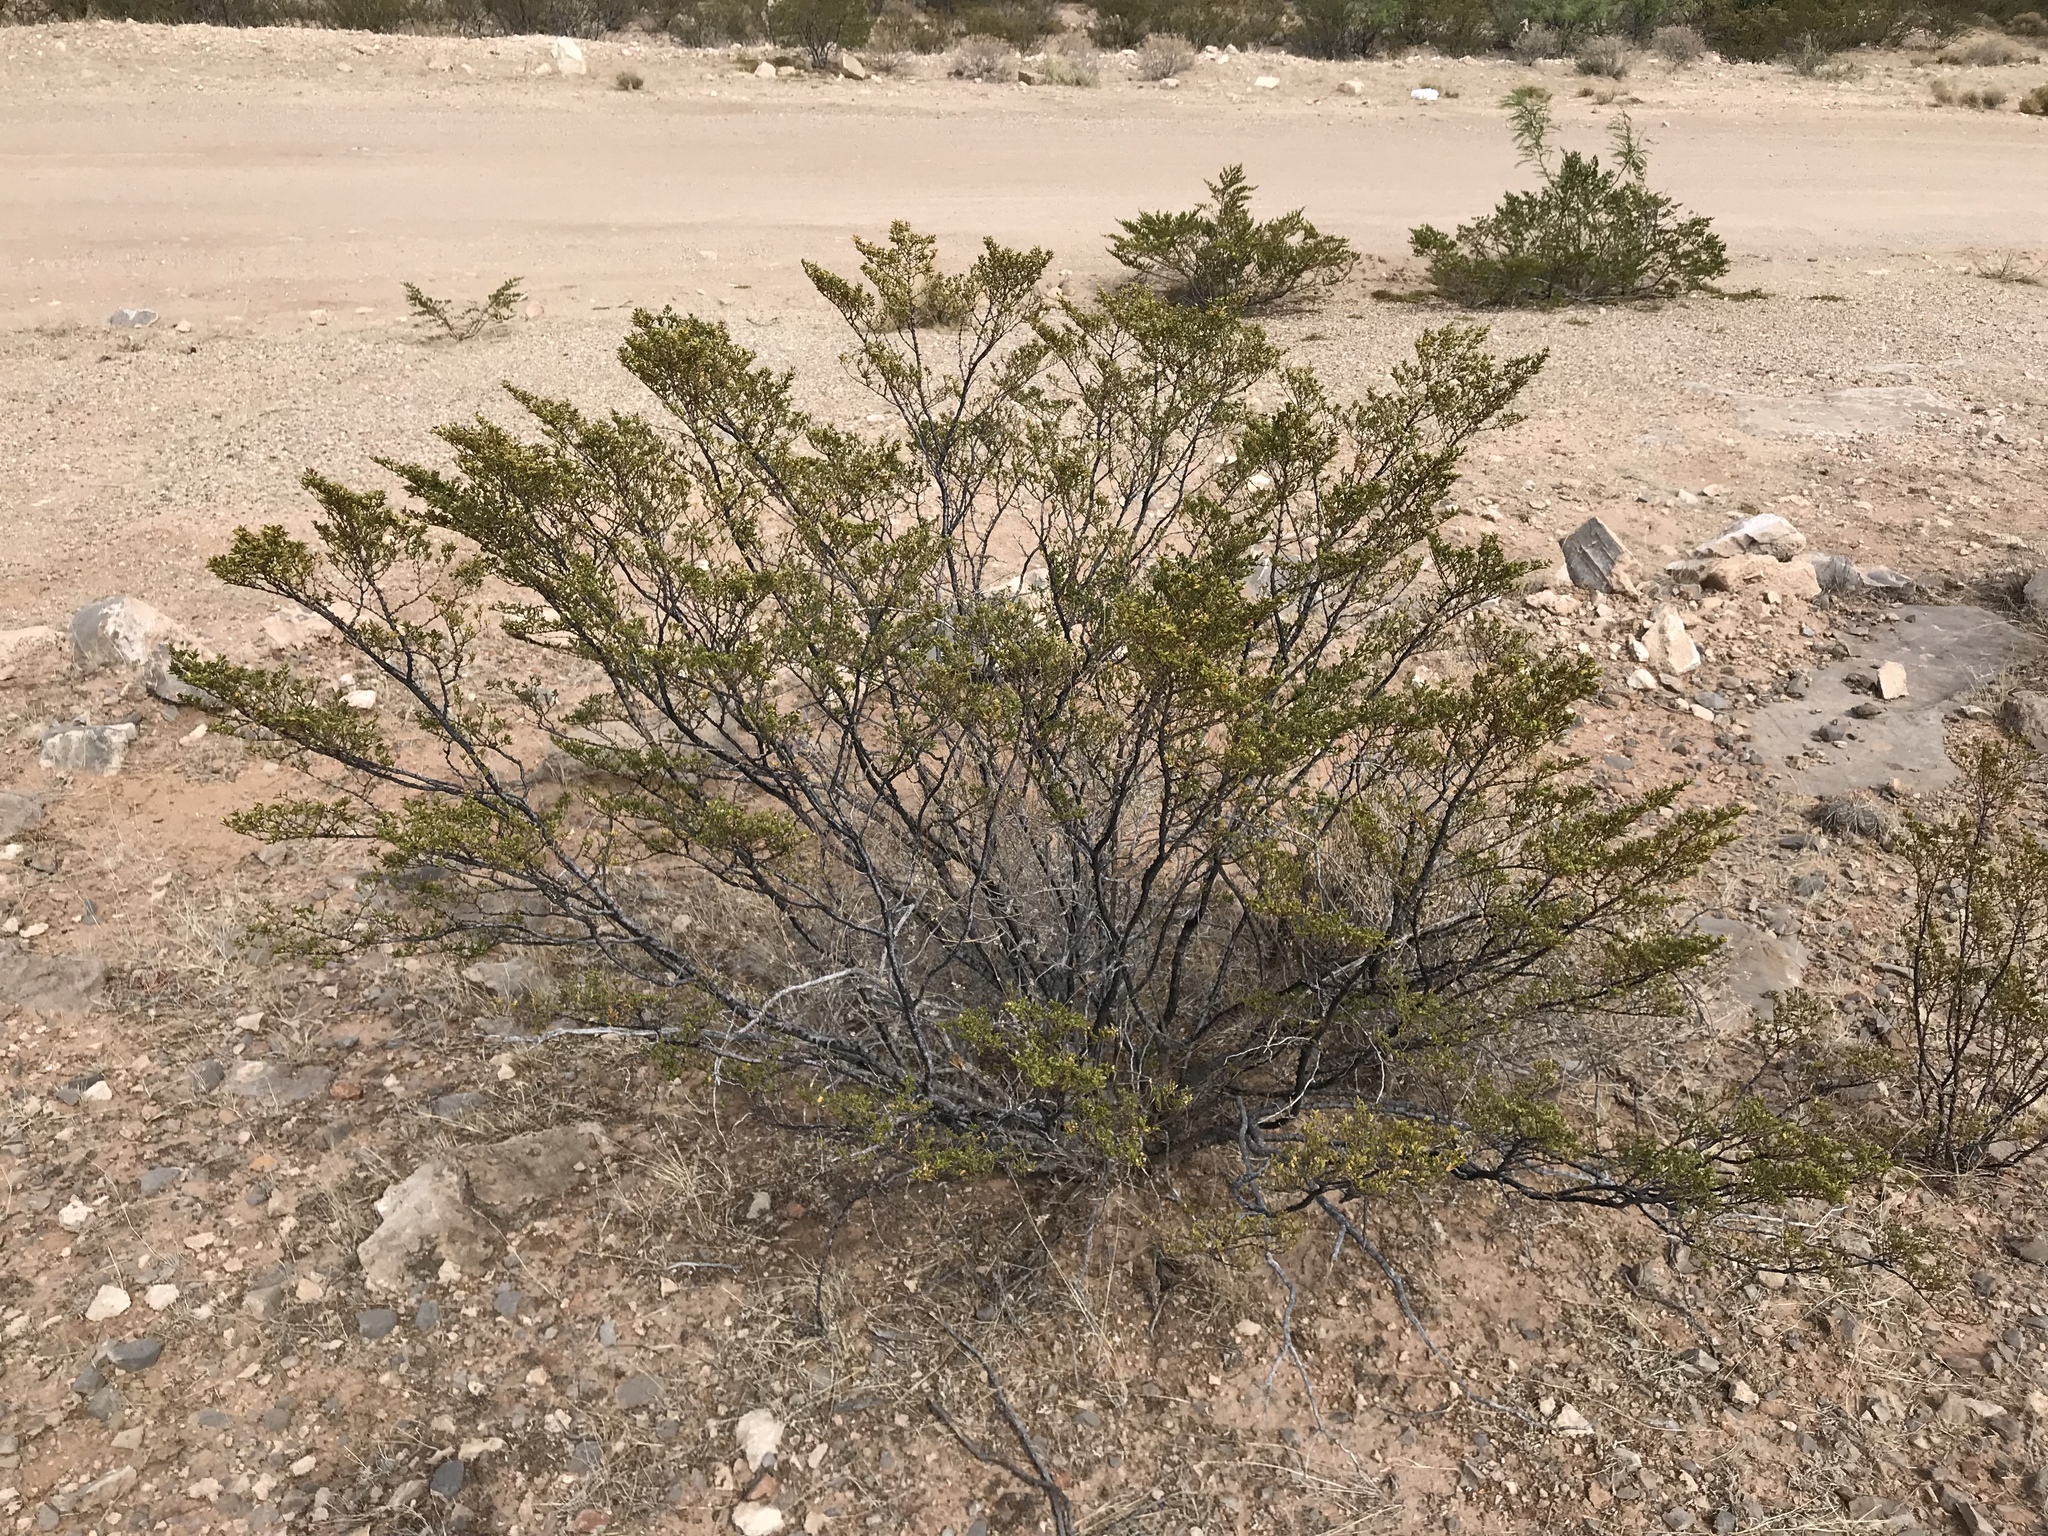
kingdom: Plantae
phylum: Tracheophyta
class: Magnoliopsida
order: Zygophyllales
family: Zygophyllaceae
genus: Larrea
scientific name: Larrea tridentata
